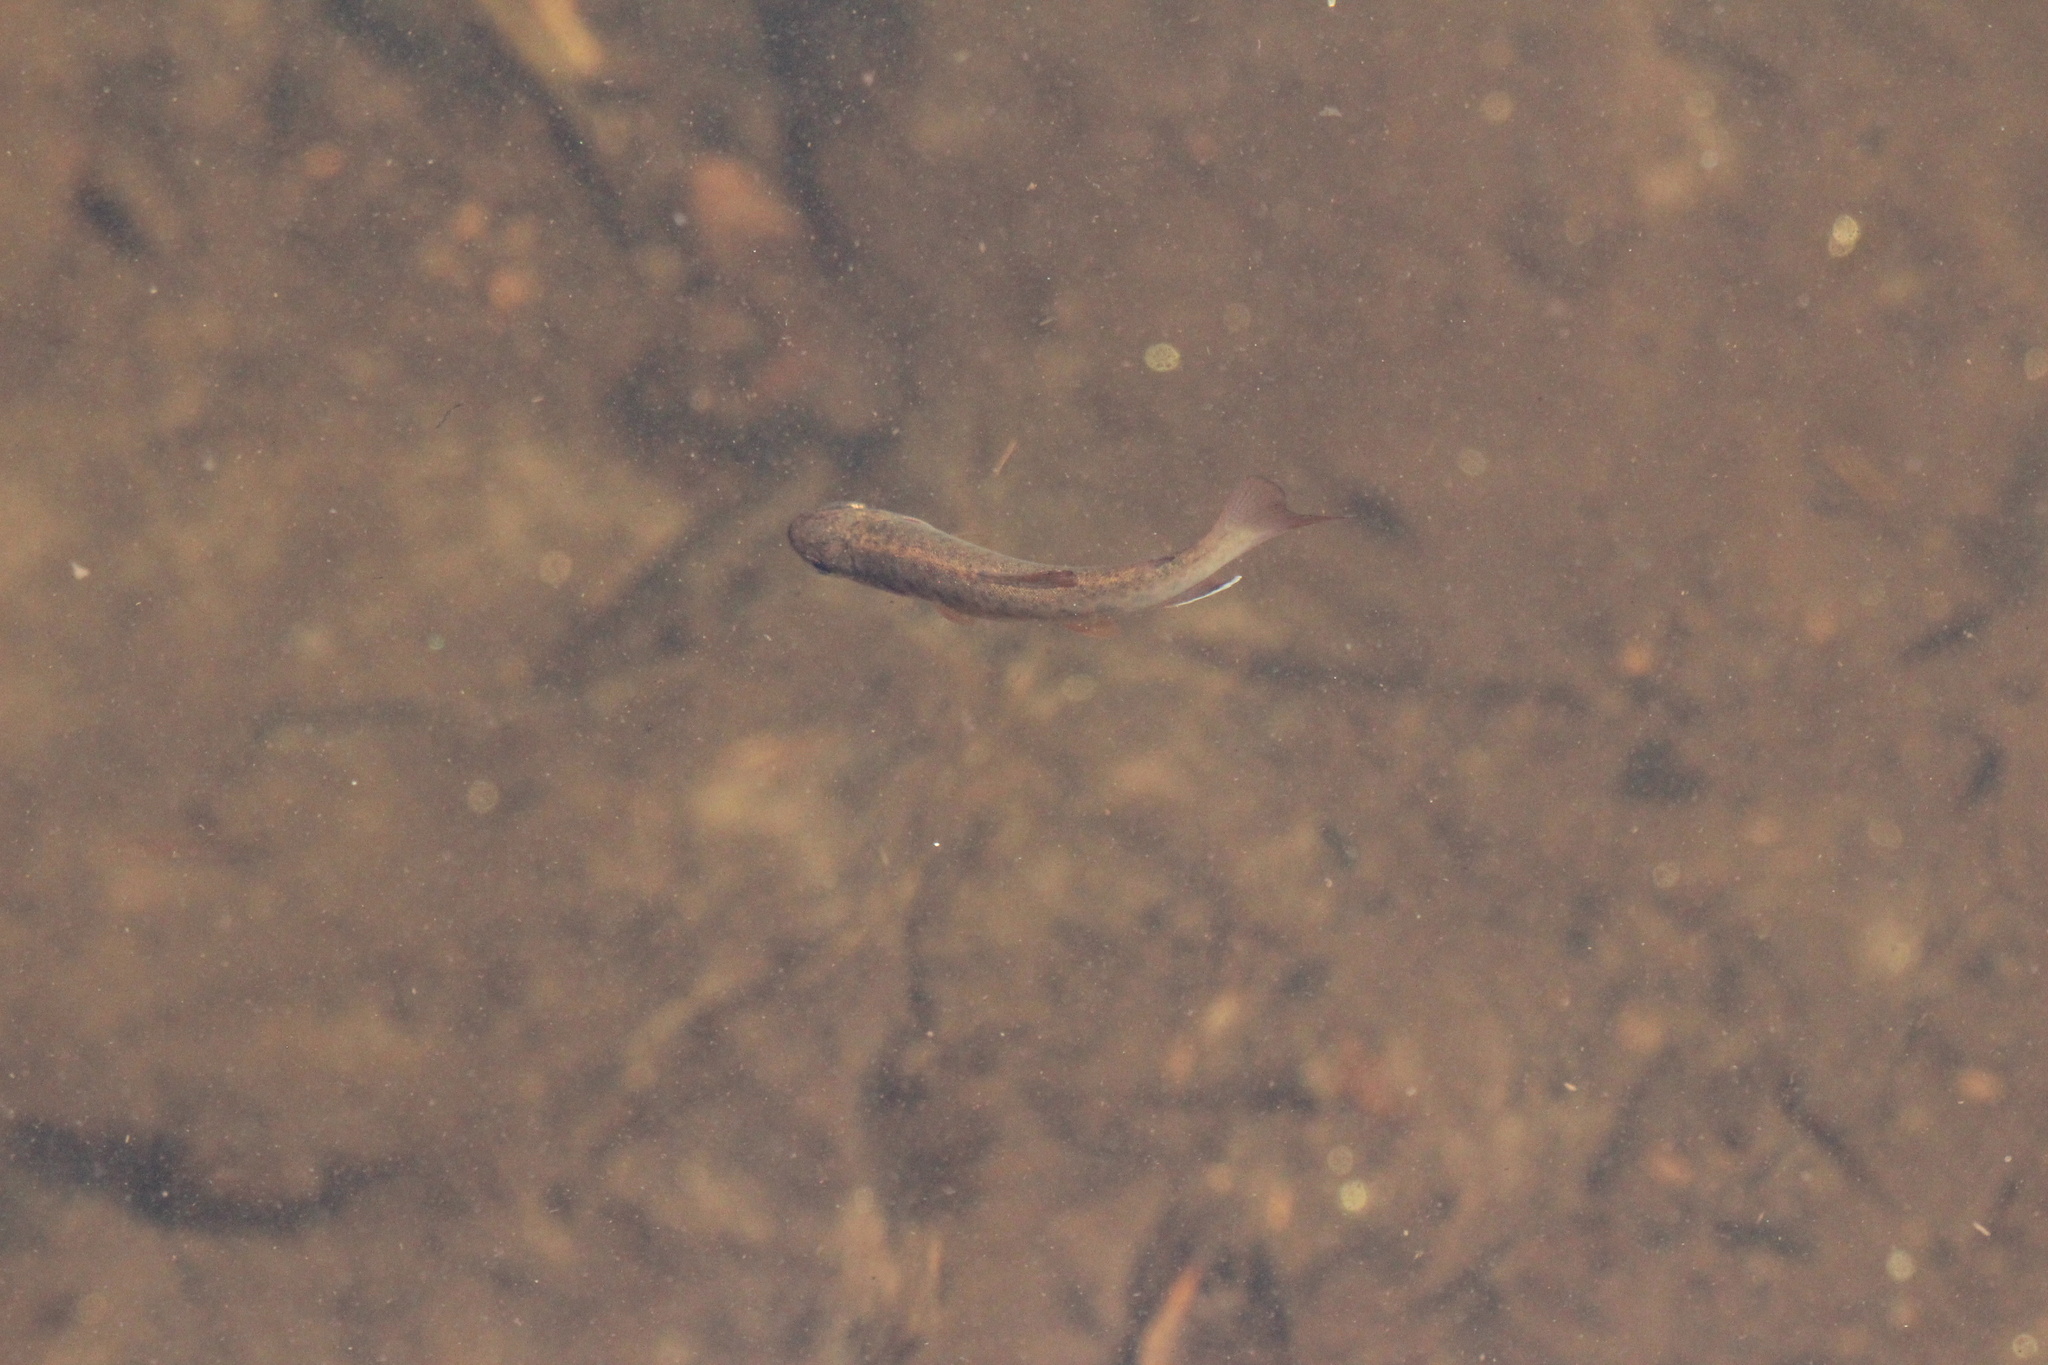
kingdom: Animalia
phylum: Chordata
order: Salmoniformes
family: Salmonidae
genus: Oncorhynchus
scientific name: Oncorhynchus kisutch
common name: Coho salmon
